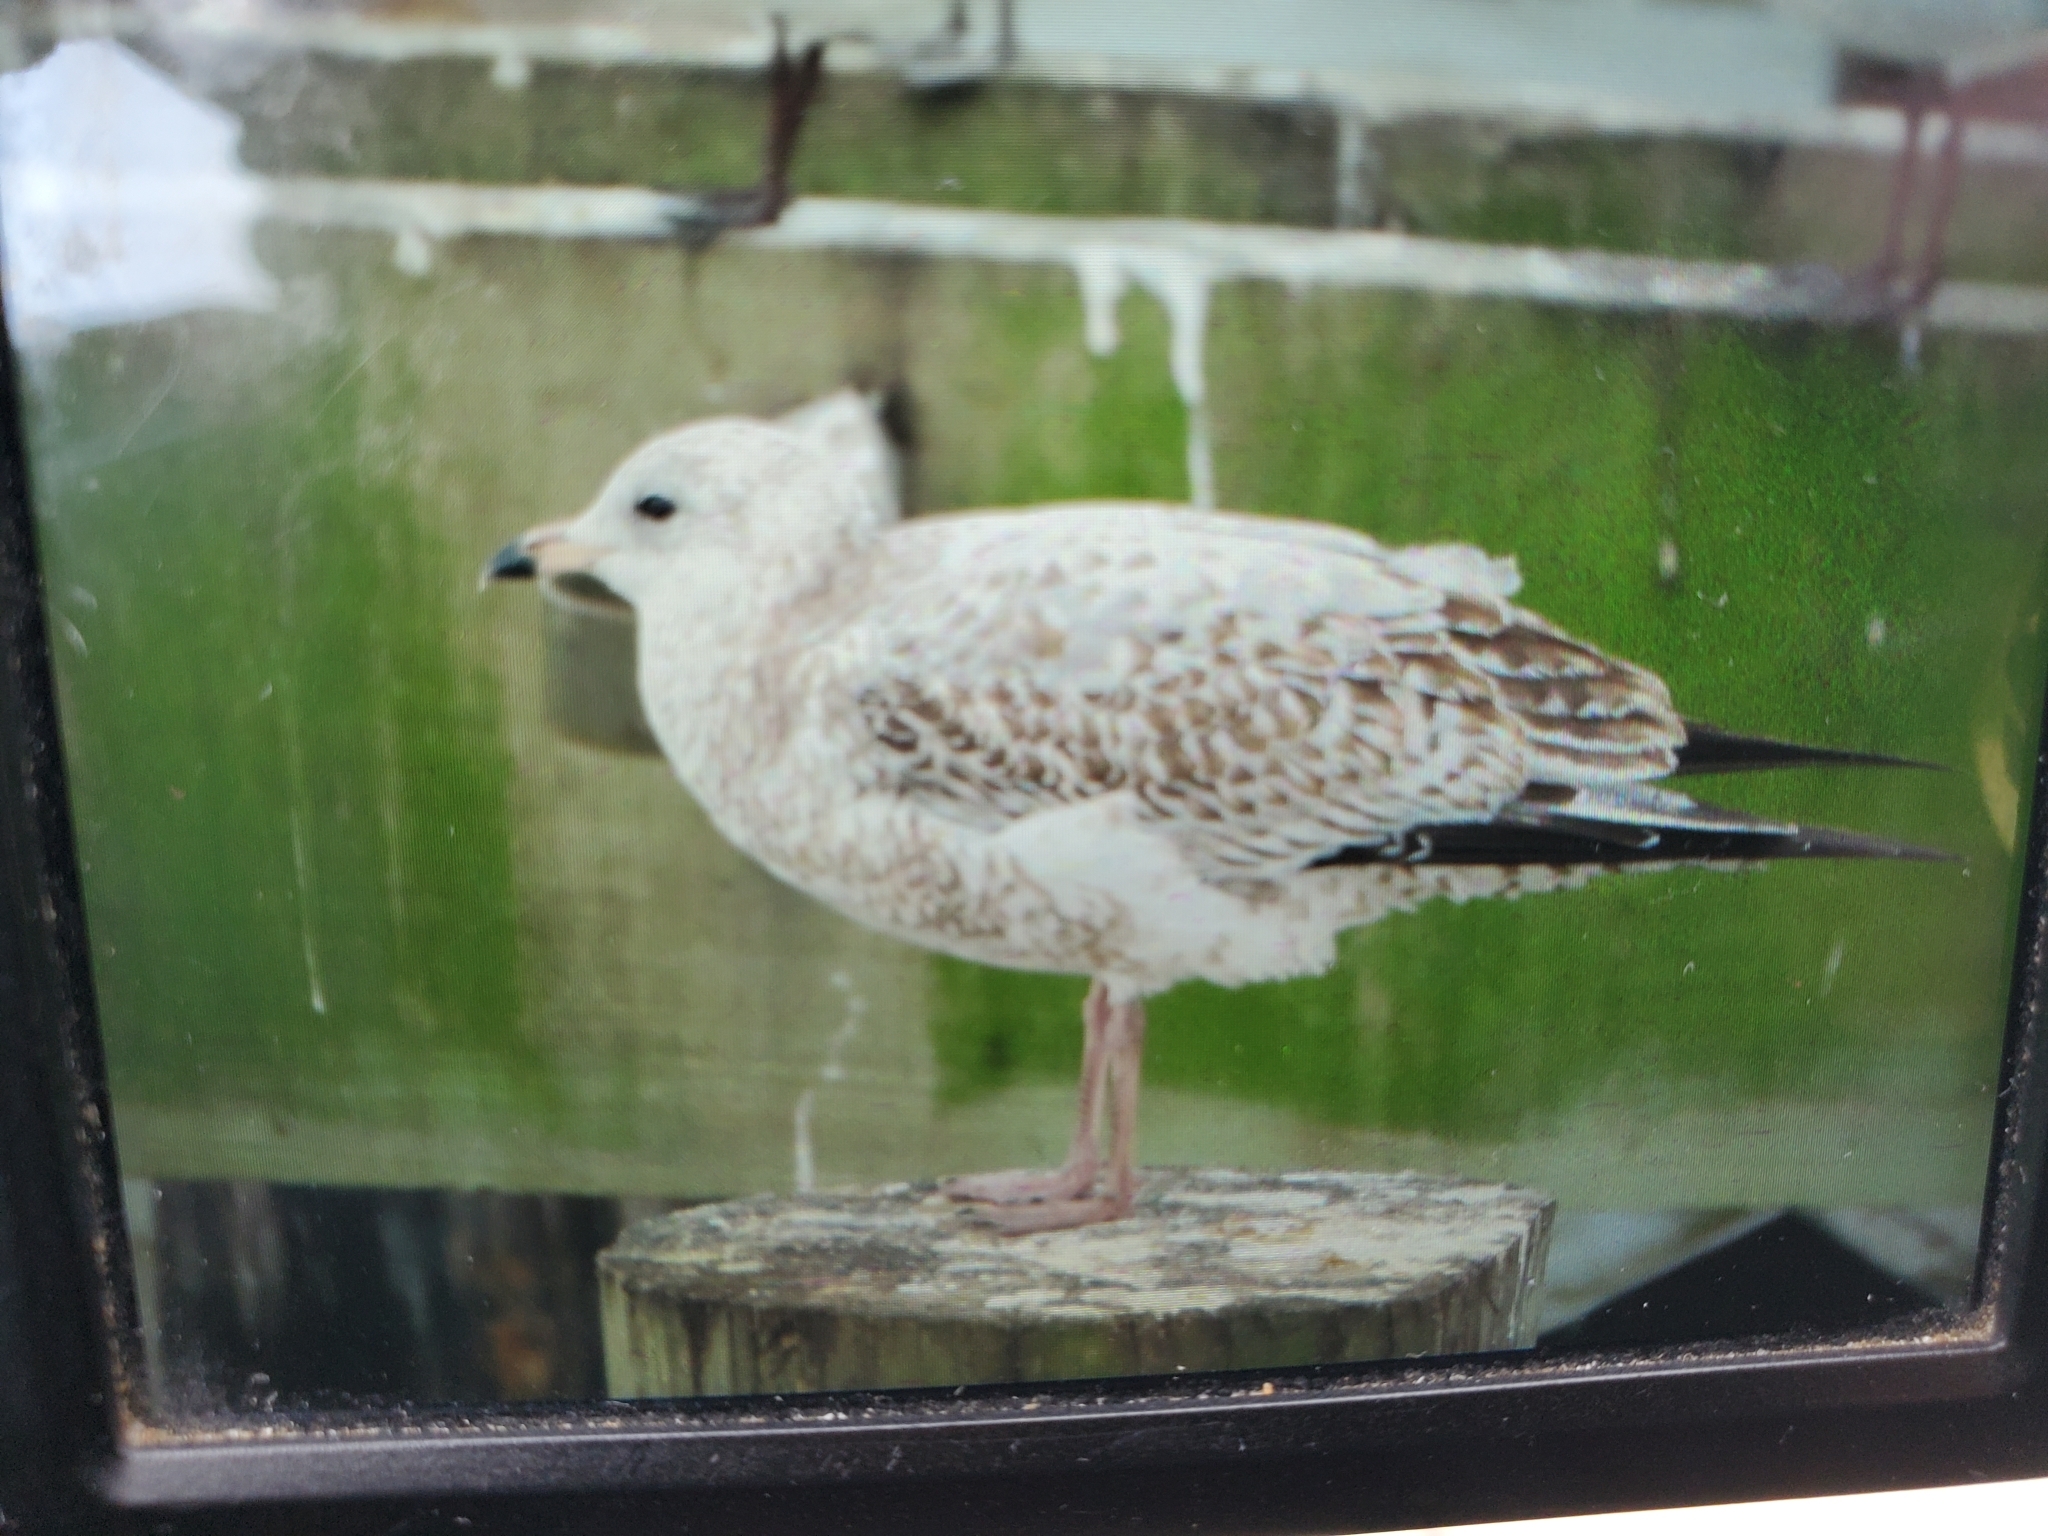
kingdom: Animalia
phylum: Chordata
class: Aves
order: Charadriiformes
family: Laridae
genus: Larus
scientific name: Larus delawarensis
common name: Ring-billed gull
